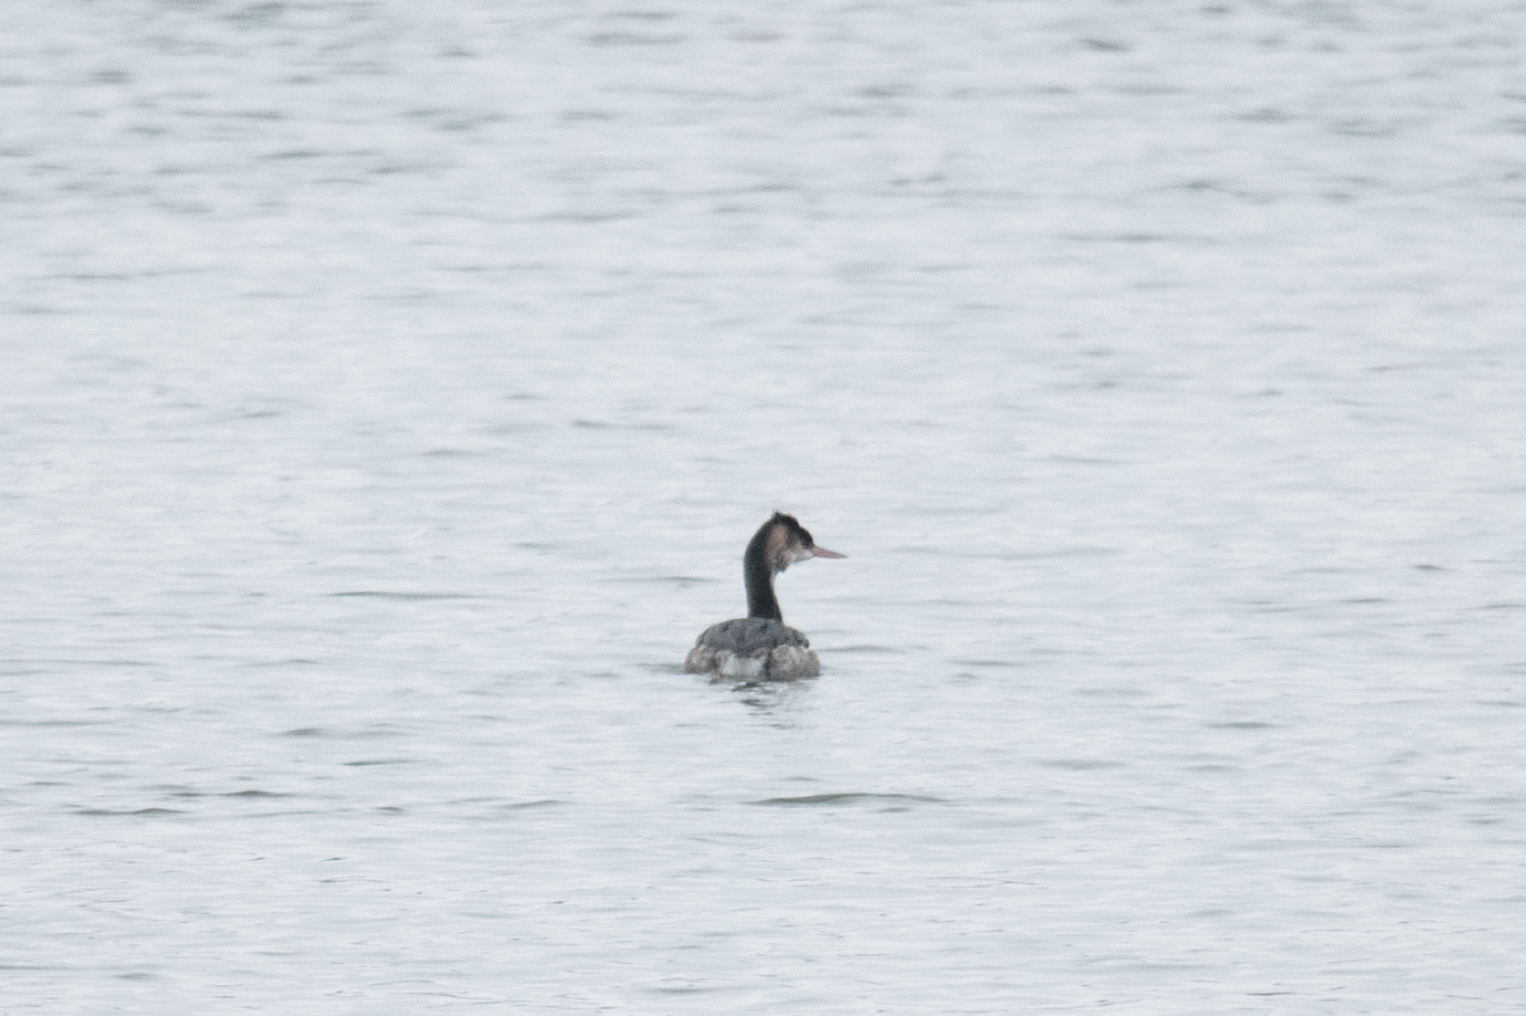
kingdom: Animalia
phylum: Chordata
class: Aves
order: Podicipediformes
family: Podicipedidae
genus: Podiceps
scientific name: Podiceps cristatus
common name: Great crested grebe
